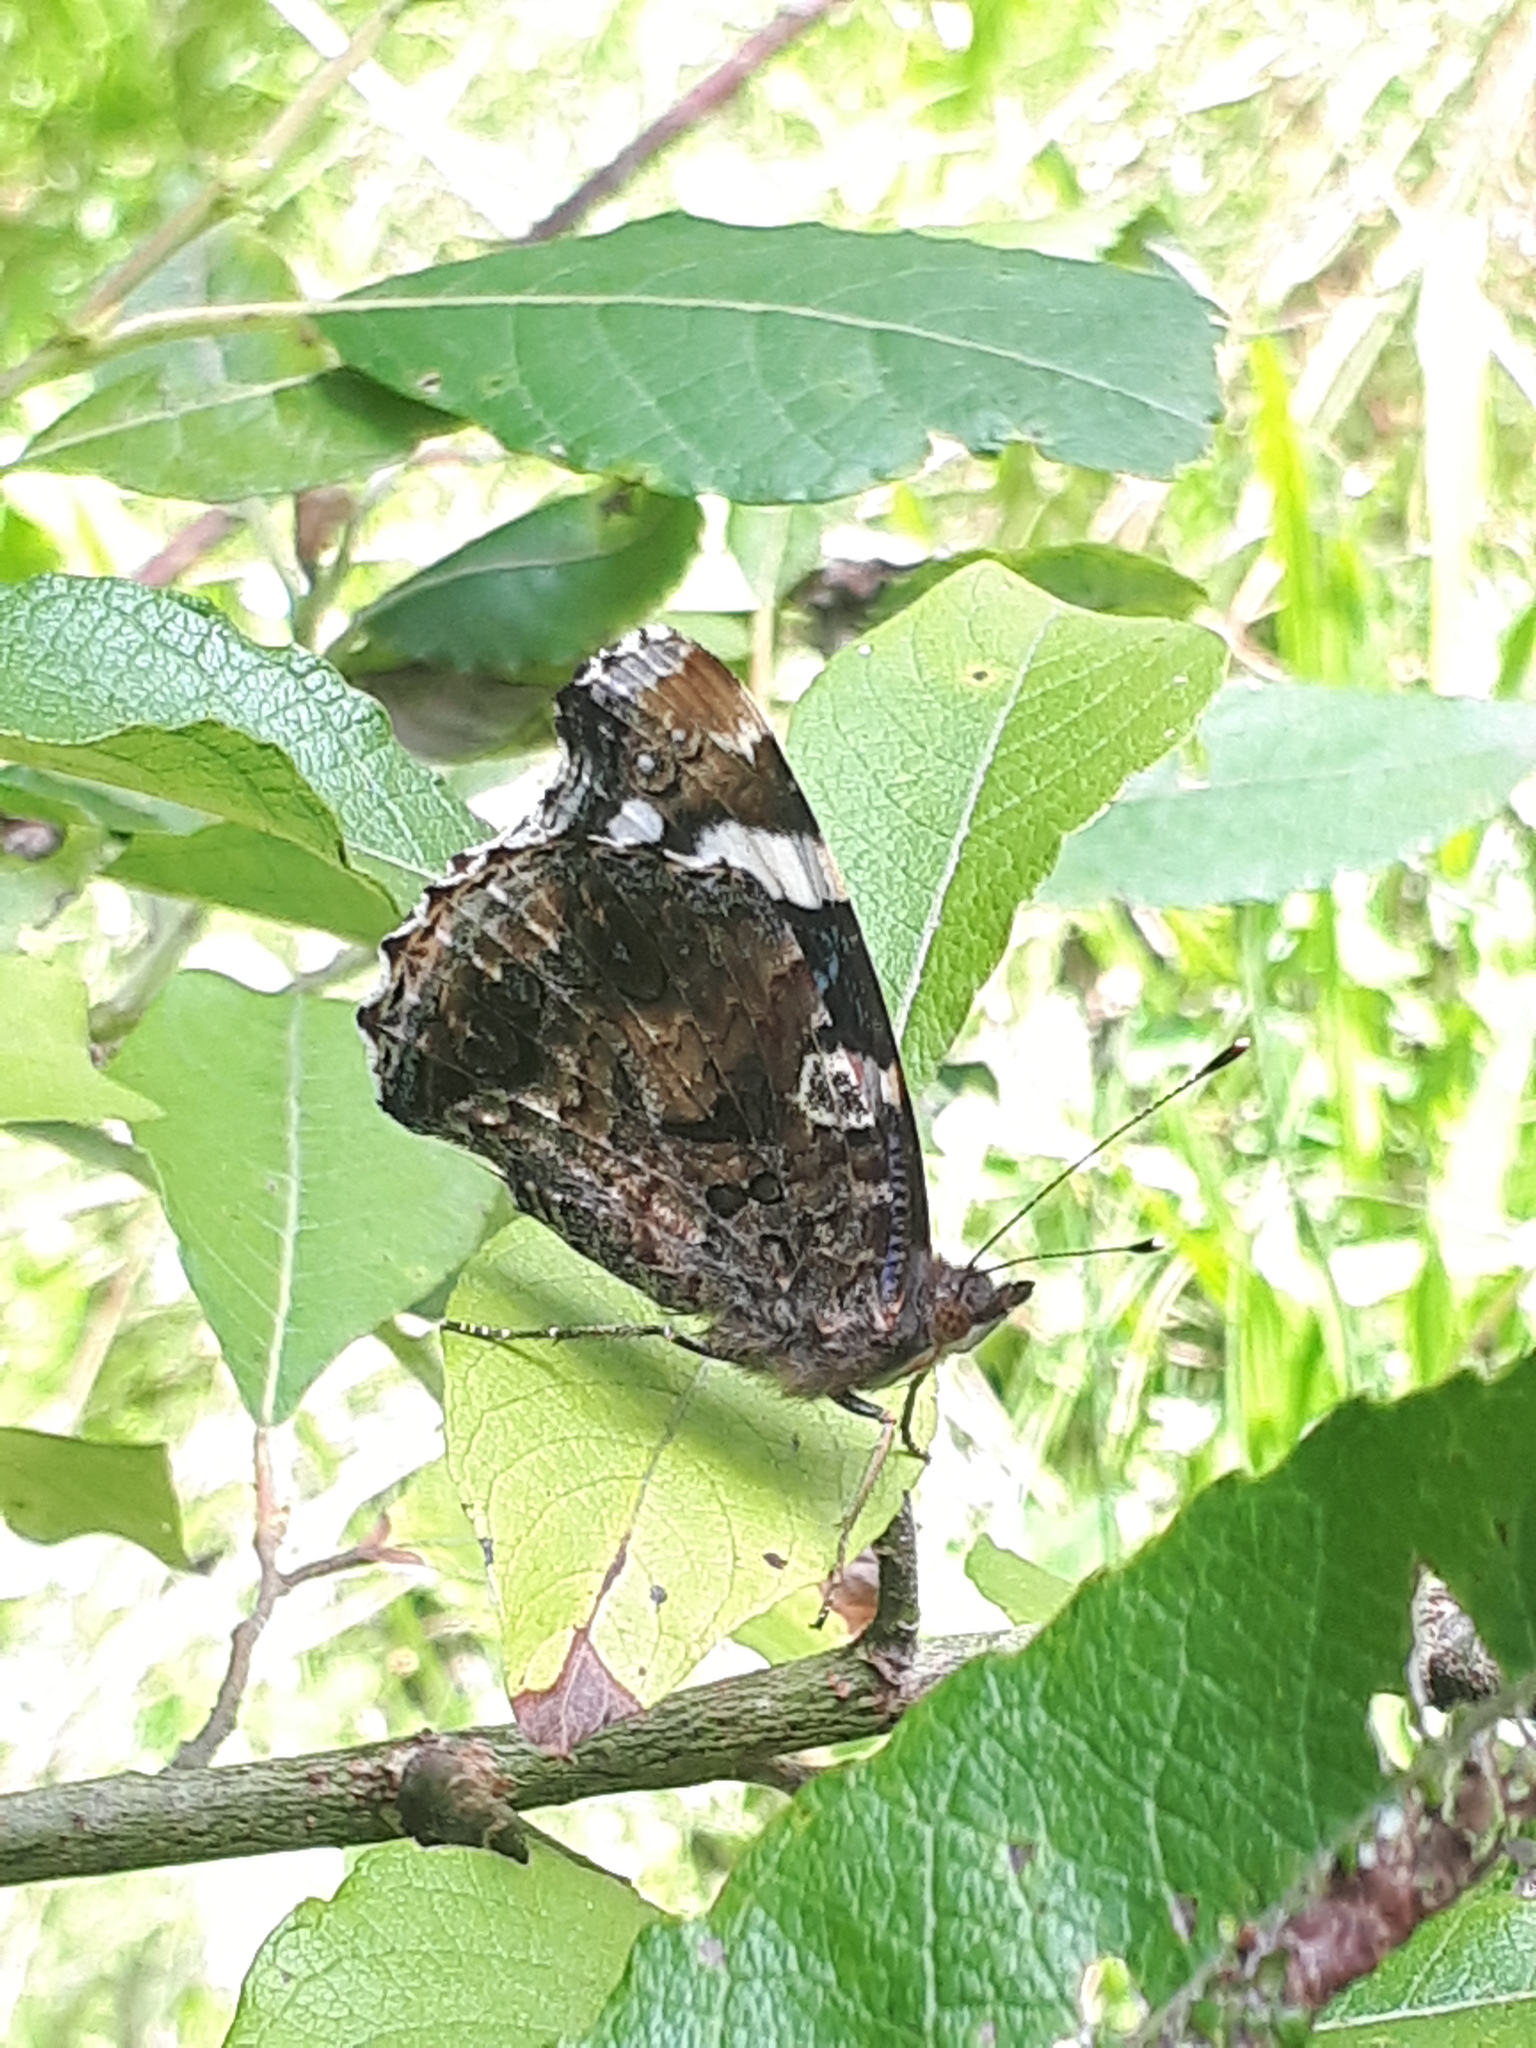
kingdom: Animalia
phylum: Arthropoda
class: Insecta
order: Lepidoptera
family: Nymphalidae
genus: Vanessa
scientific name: Vanessa atalanta
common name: Red admiral
